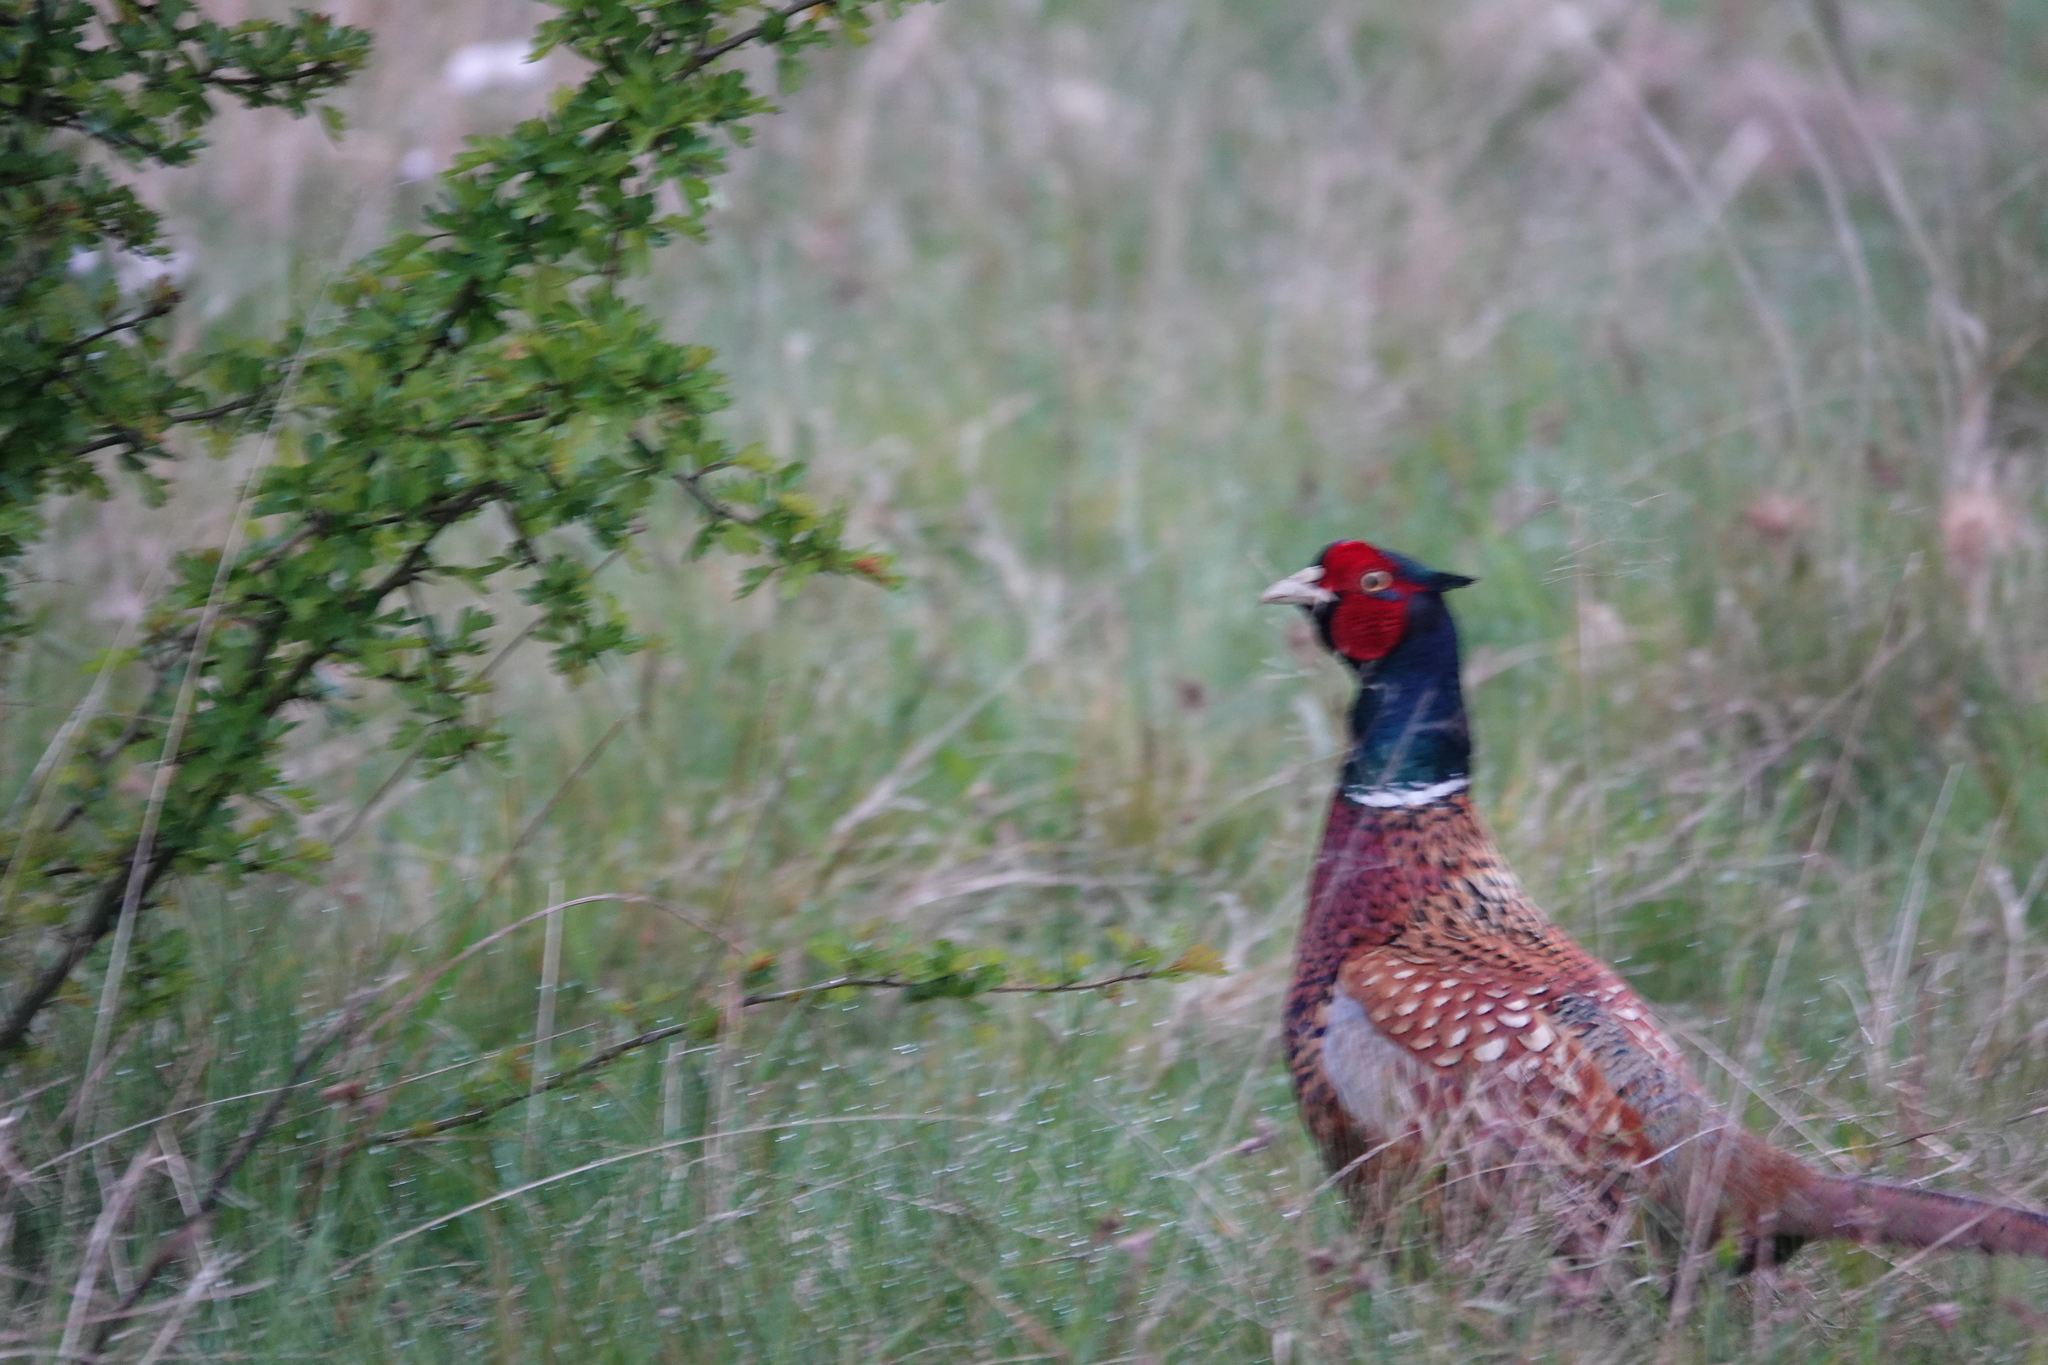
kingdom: Animalia
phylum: Chordata
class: Aves
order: Galliformes
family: Phasianidae
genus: Phasianus
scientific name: Phasianus colchicus
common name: Common pheasant
